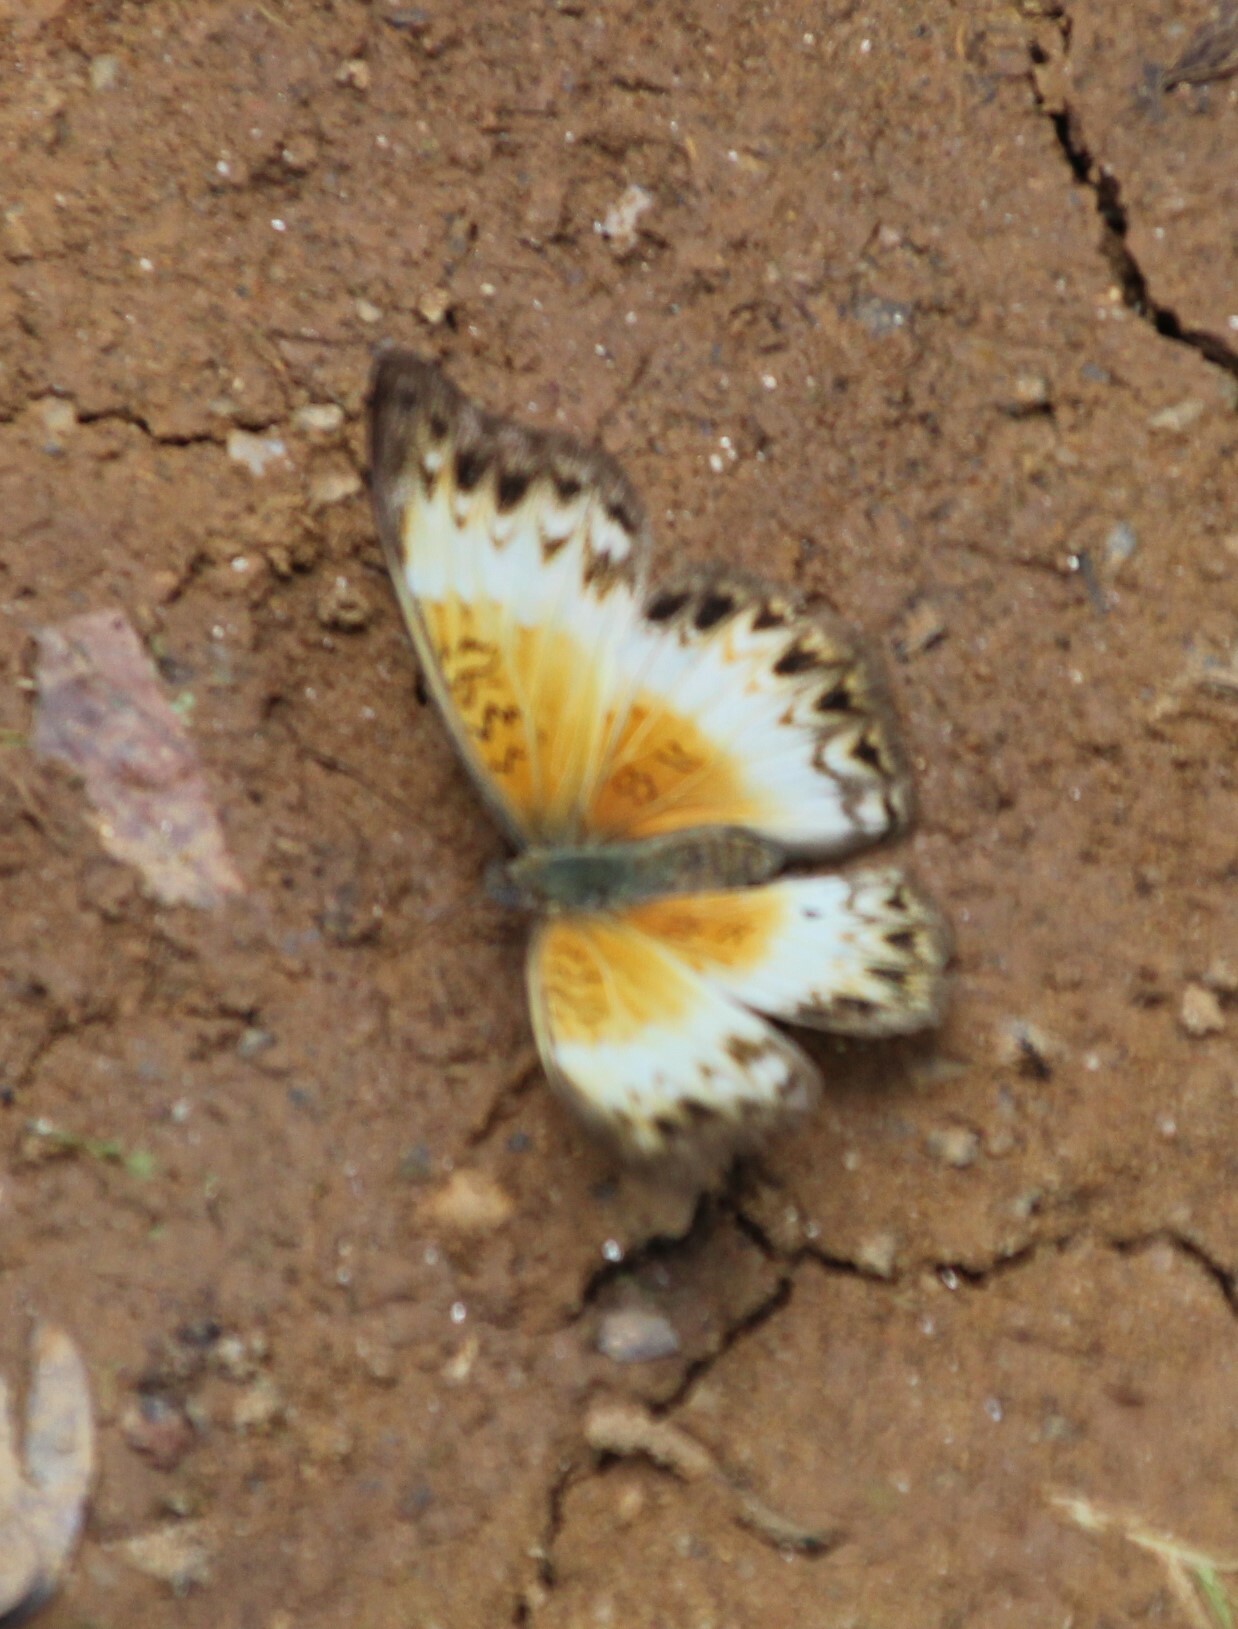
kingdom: Animalia
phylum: Arthropoda
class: Insecta
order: Lepidoptera
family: Nymphalidae
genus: Cymothoe
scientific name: Cymothoe caenis
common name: Common glider
